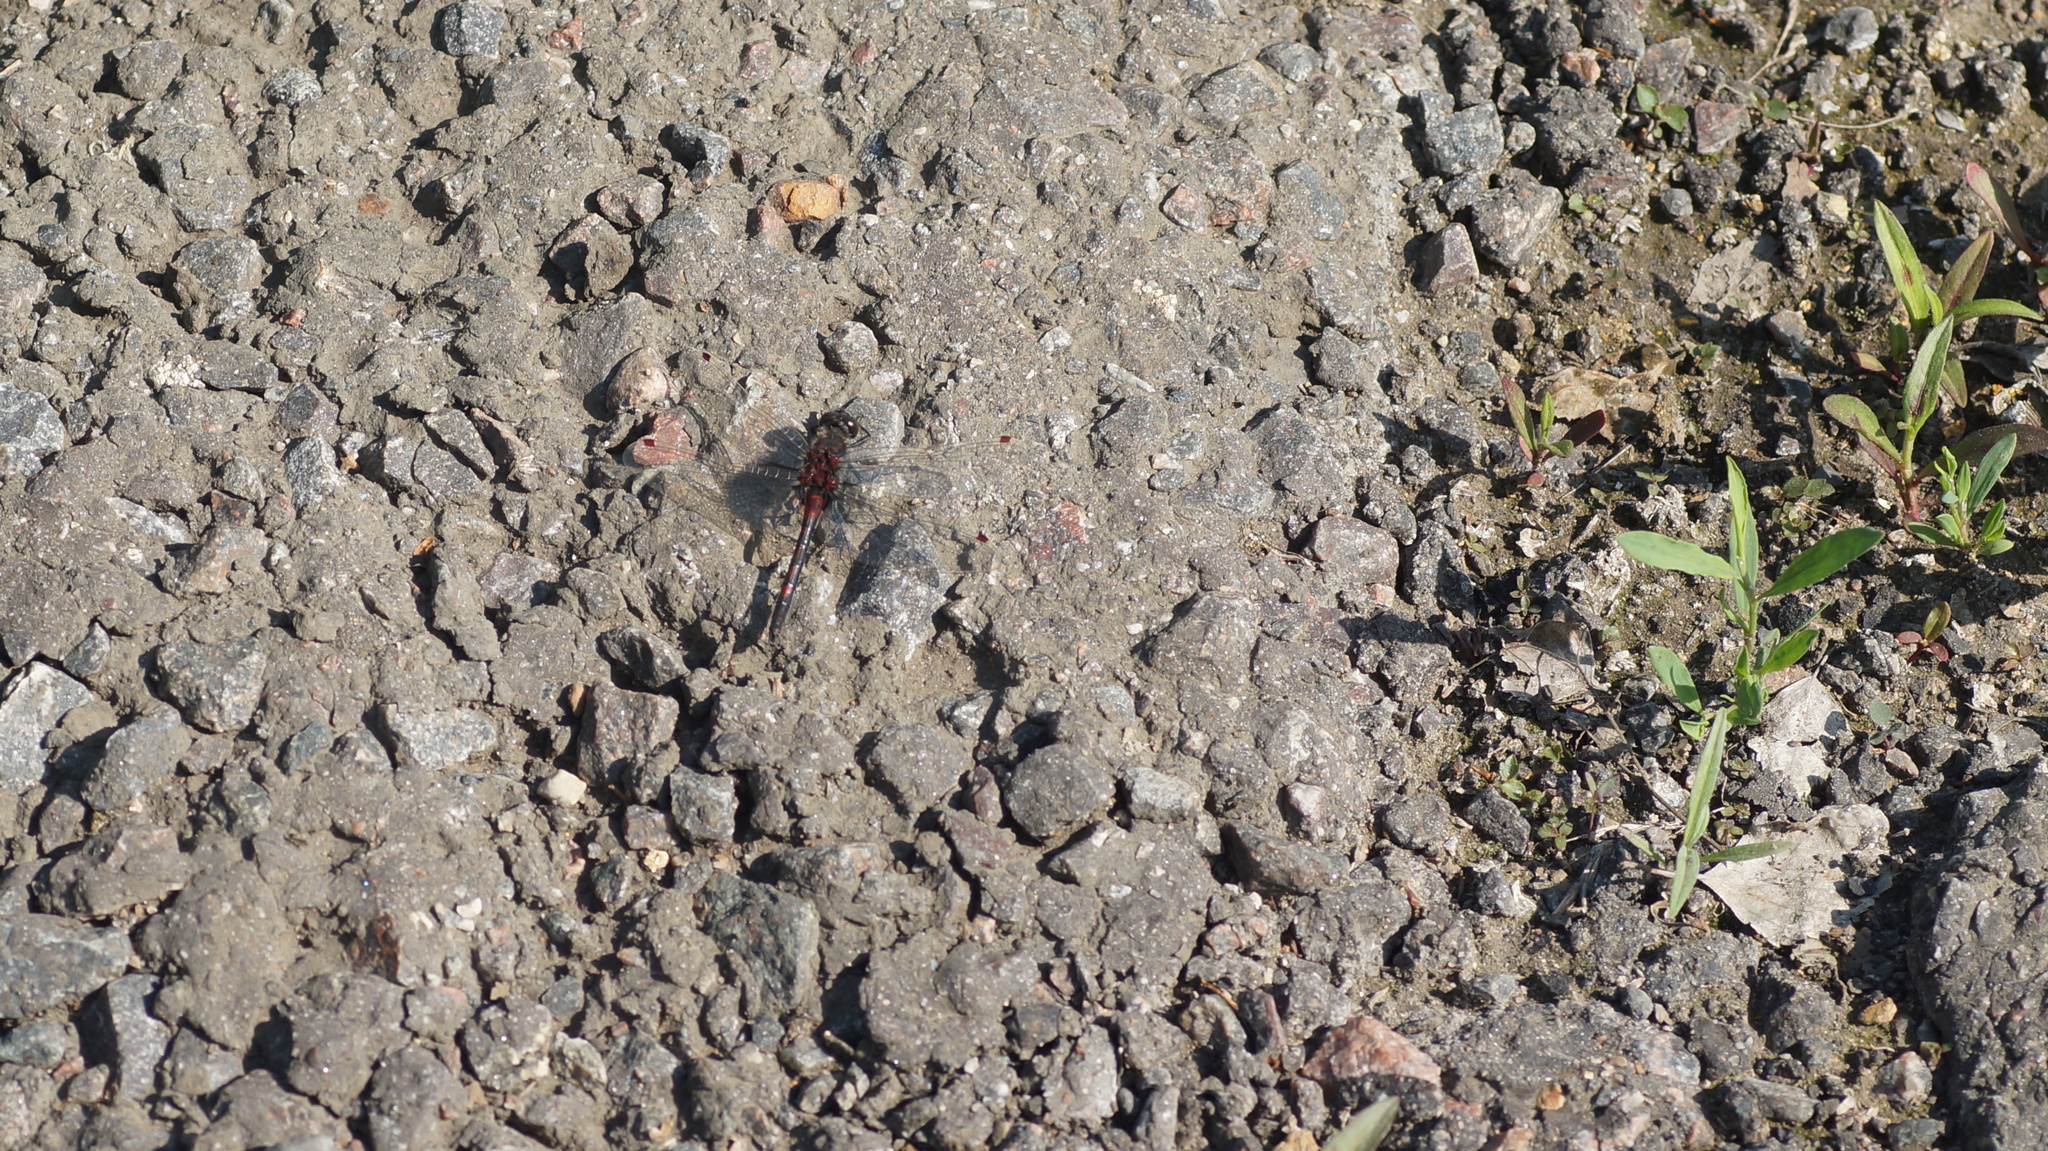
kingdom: Animalia
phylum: Arthropoda
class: Insecta
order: Odonata
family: Libellulidae
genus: Leucorrhinia
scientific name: Leucorrhinia rubicunda
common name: Ruby whiteface
